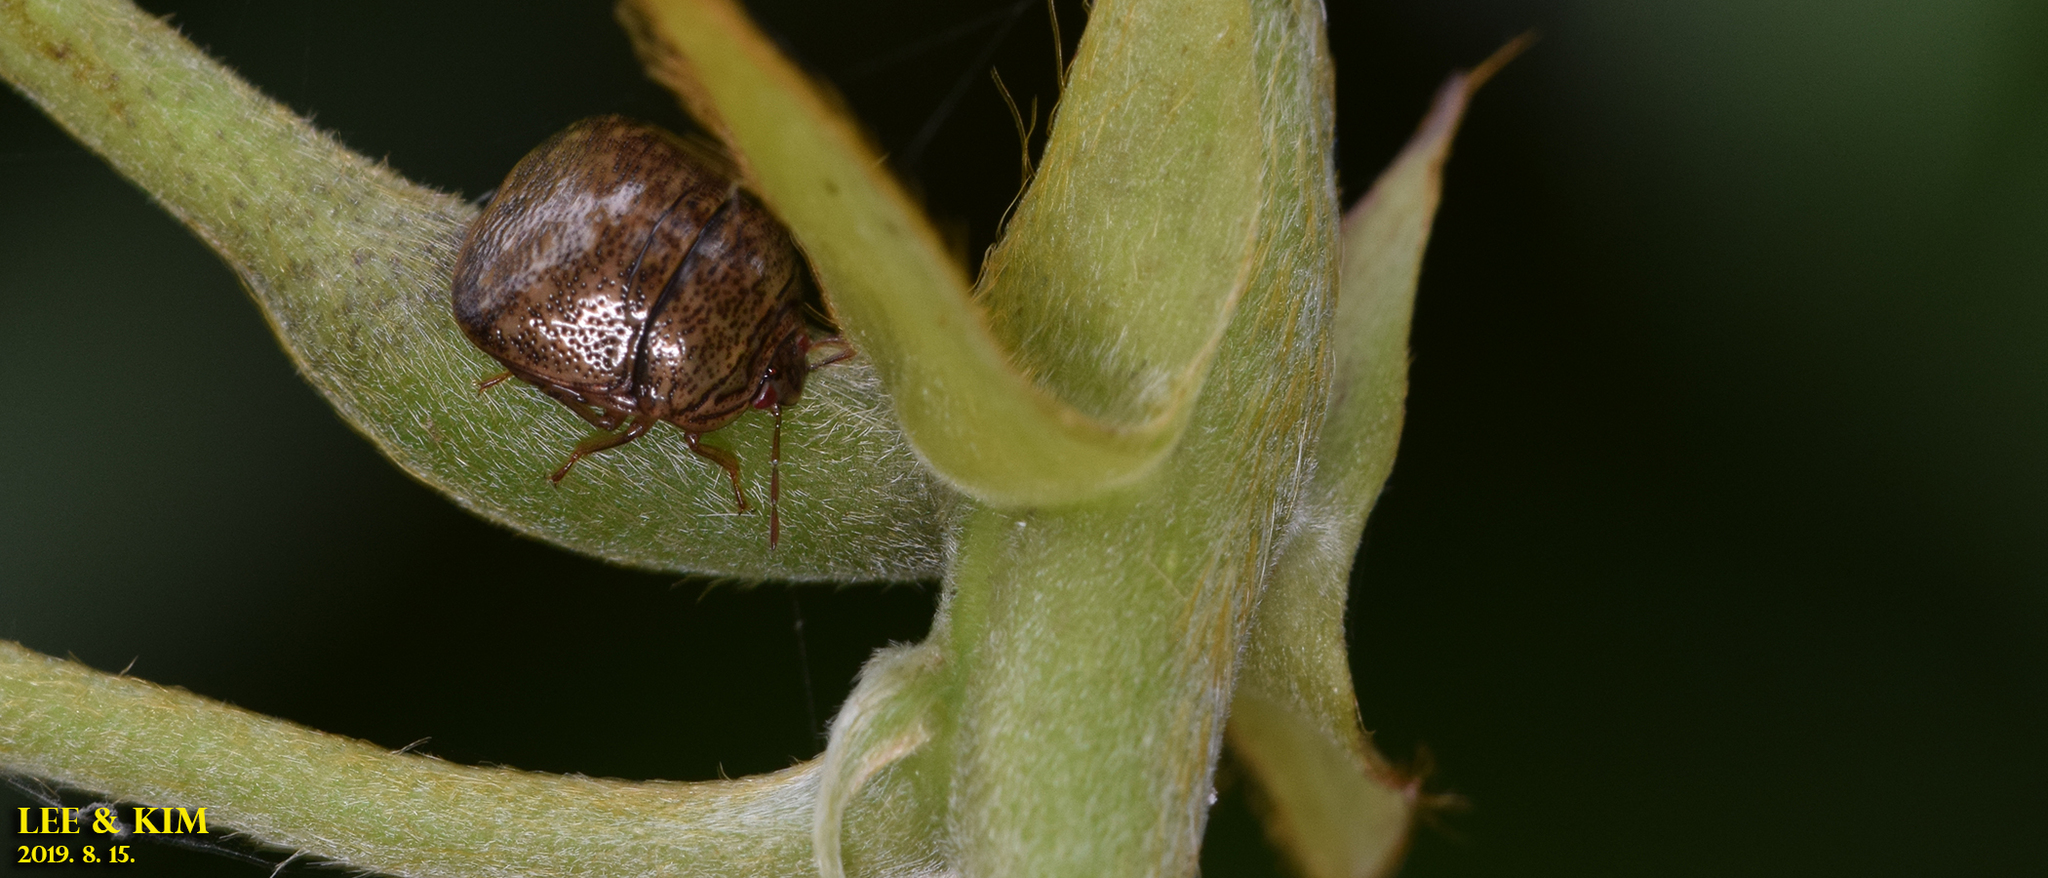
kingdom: Animalia
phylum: Arthropoda
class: Insecta
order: Hemiptera
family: Plataspidae
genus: Megacopta
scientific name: Megacopta cribraria
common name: Bean plataspid
